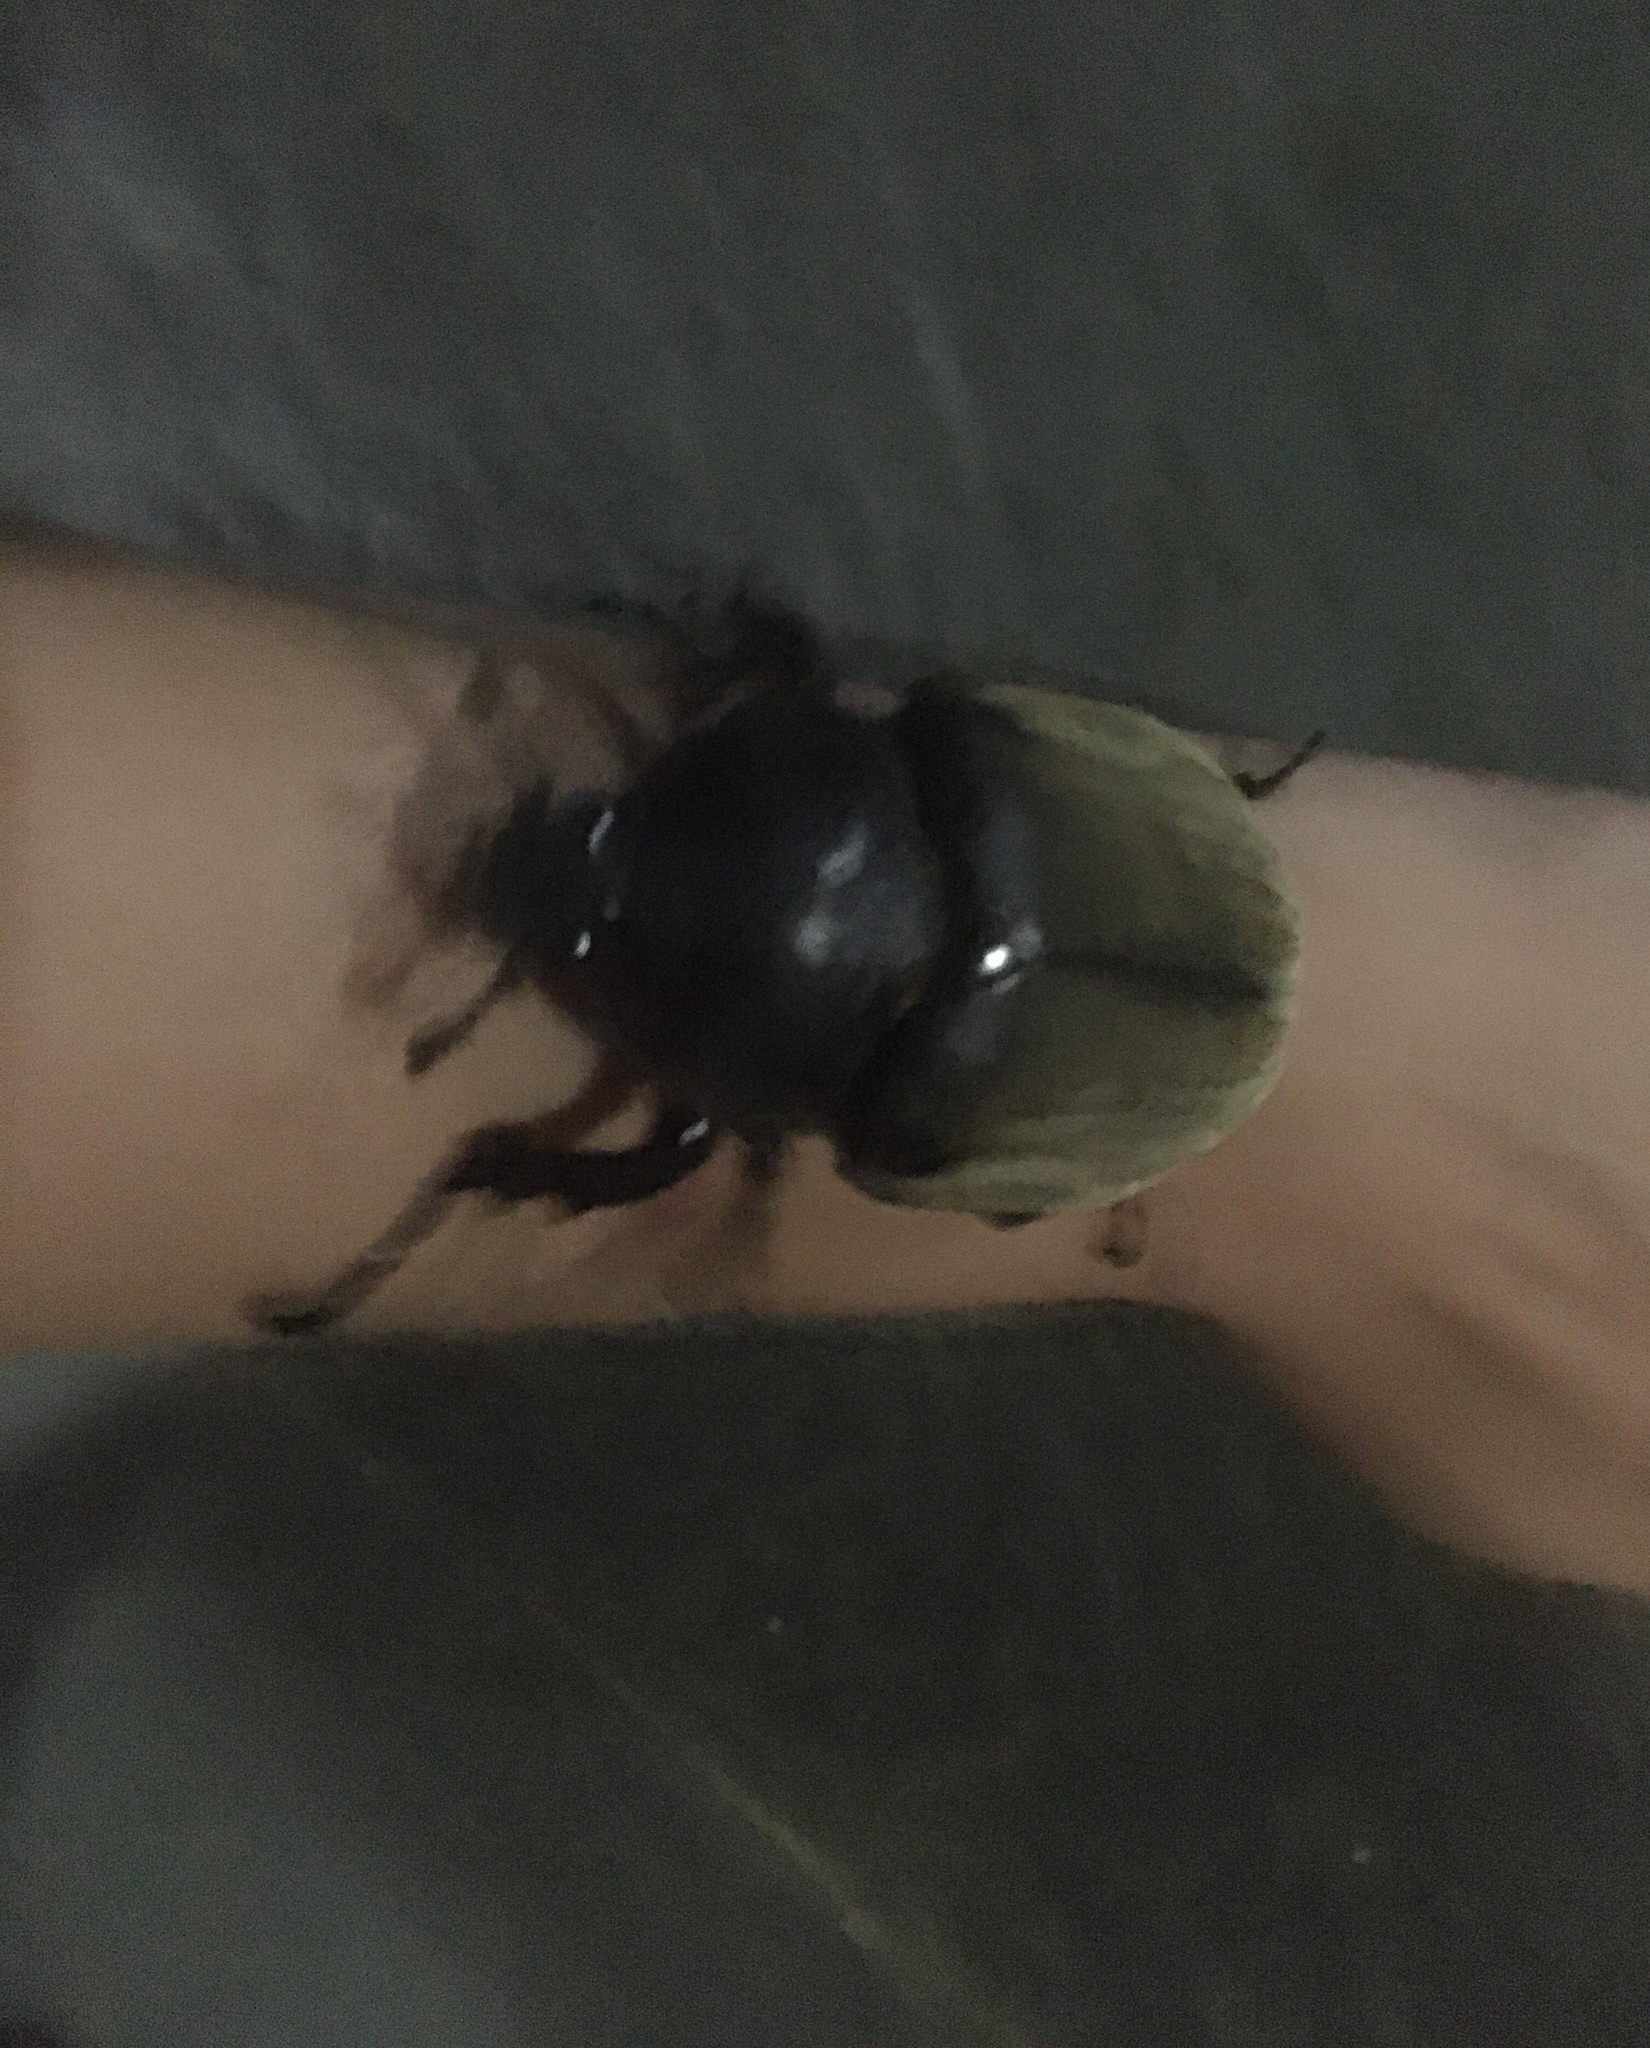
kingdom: Animalia
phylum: Arthropoda
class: Insecta
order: Coleoptera
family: Scarabaeidae
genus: Megasoma
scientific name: Megasoma anubis
